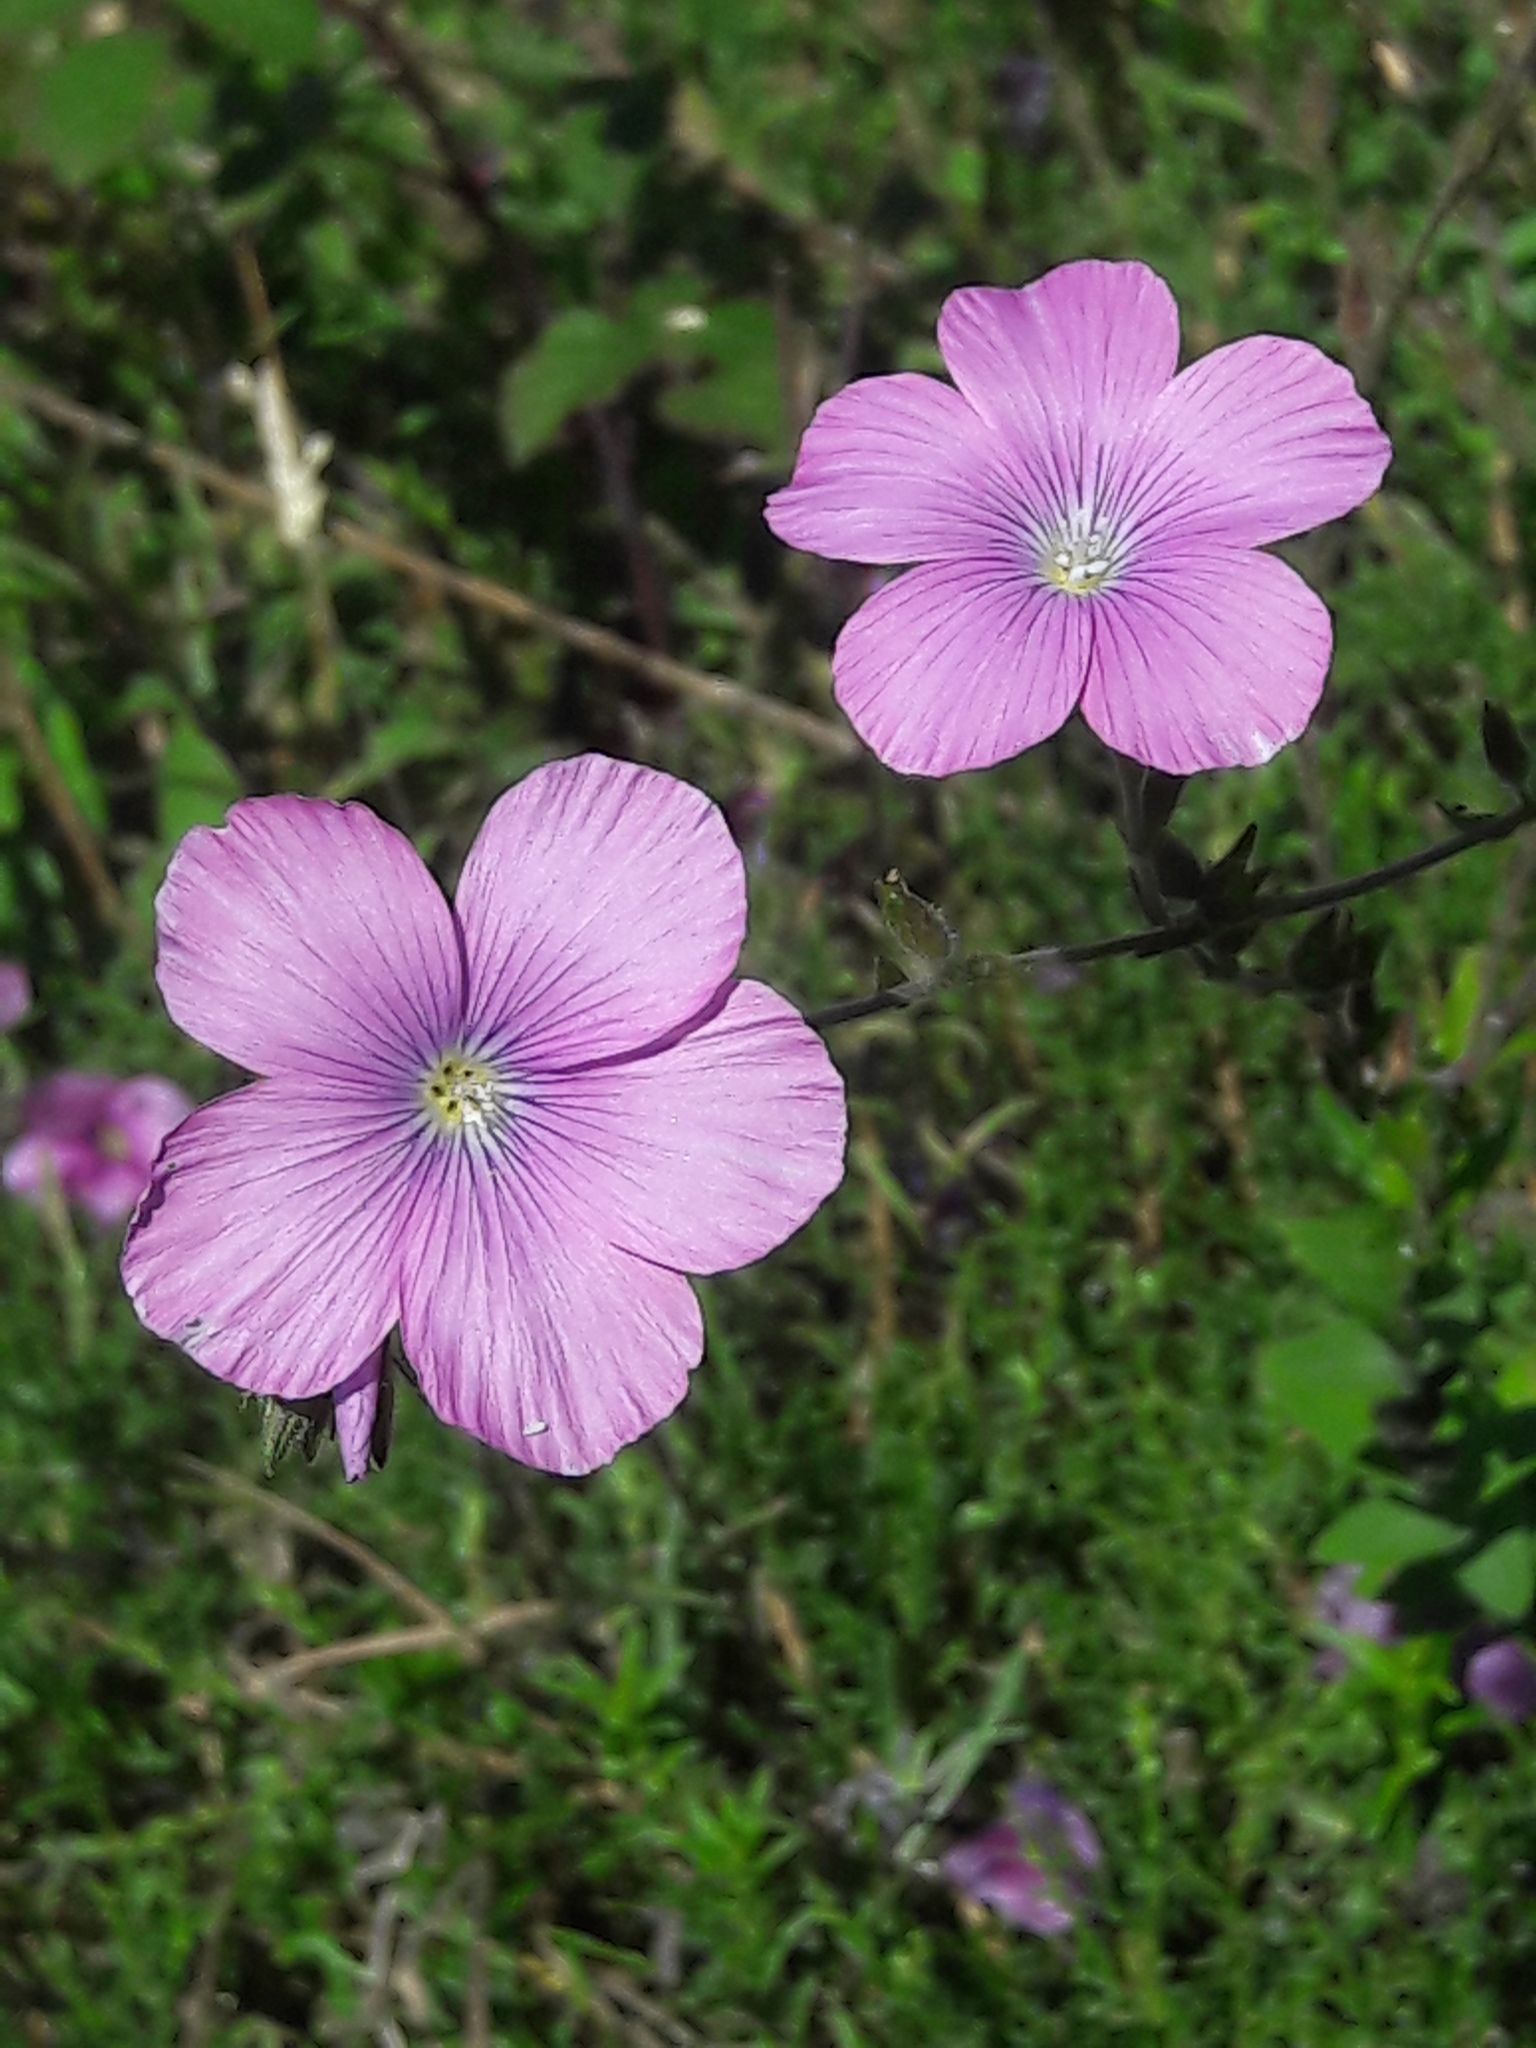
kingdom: Plantae
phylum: Tracheophyta
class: Magnoliopsida
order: Malpighiales
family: Linaceae
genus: Linum
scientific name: Linum viscosum
